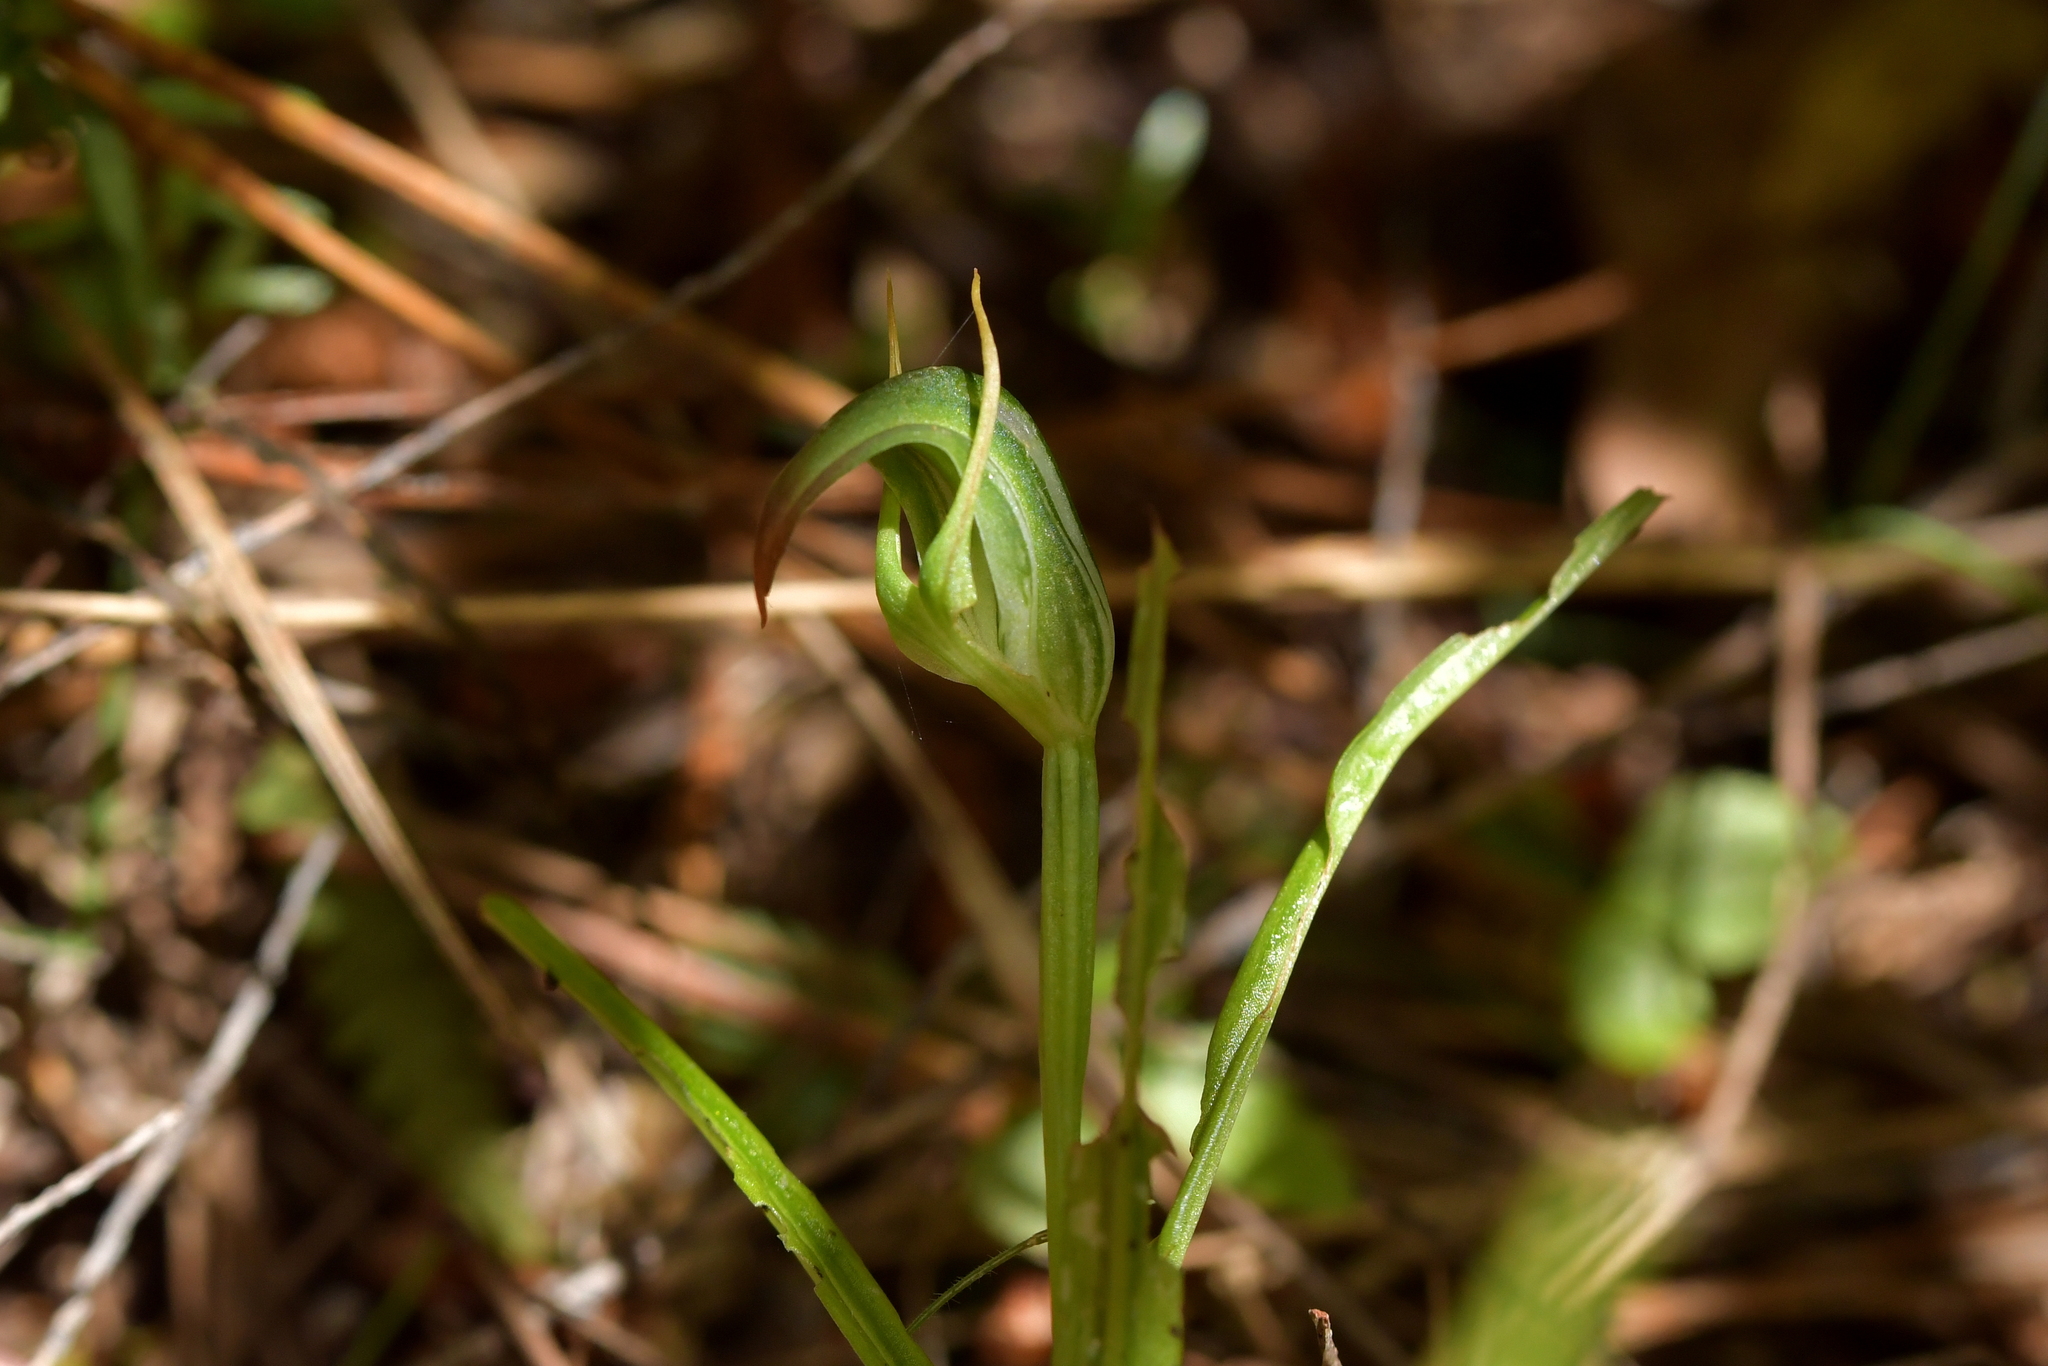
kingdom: Plantae
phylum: Tracheophyta
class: Liliopsida
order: Asparagales
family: Orchidaceae
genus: Pterostylis
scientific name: Pterostylis graminea
